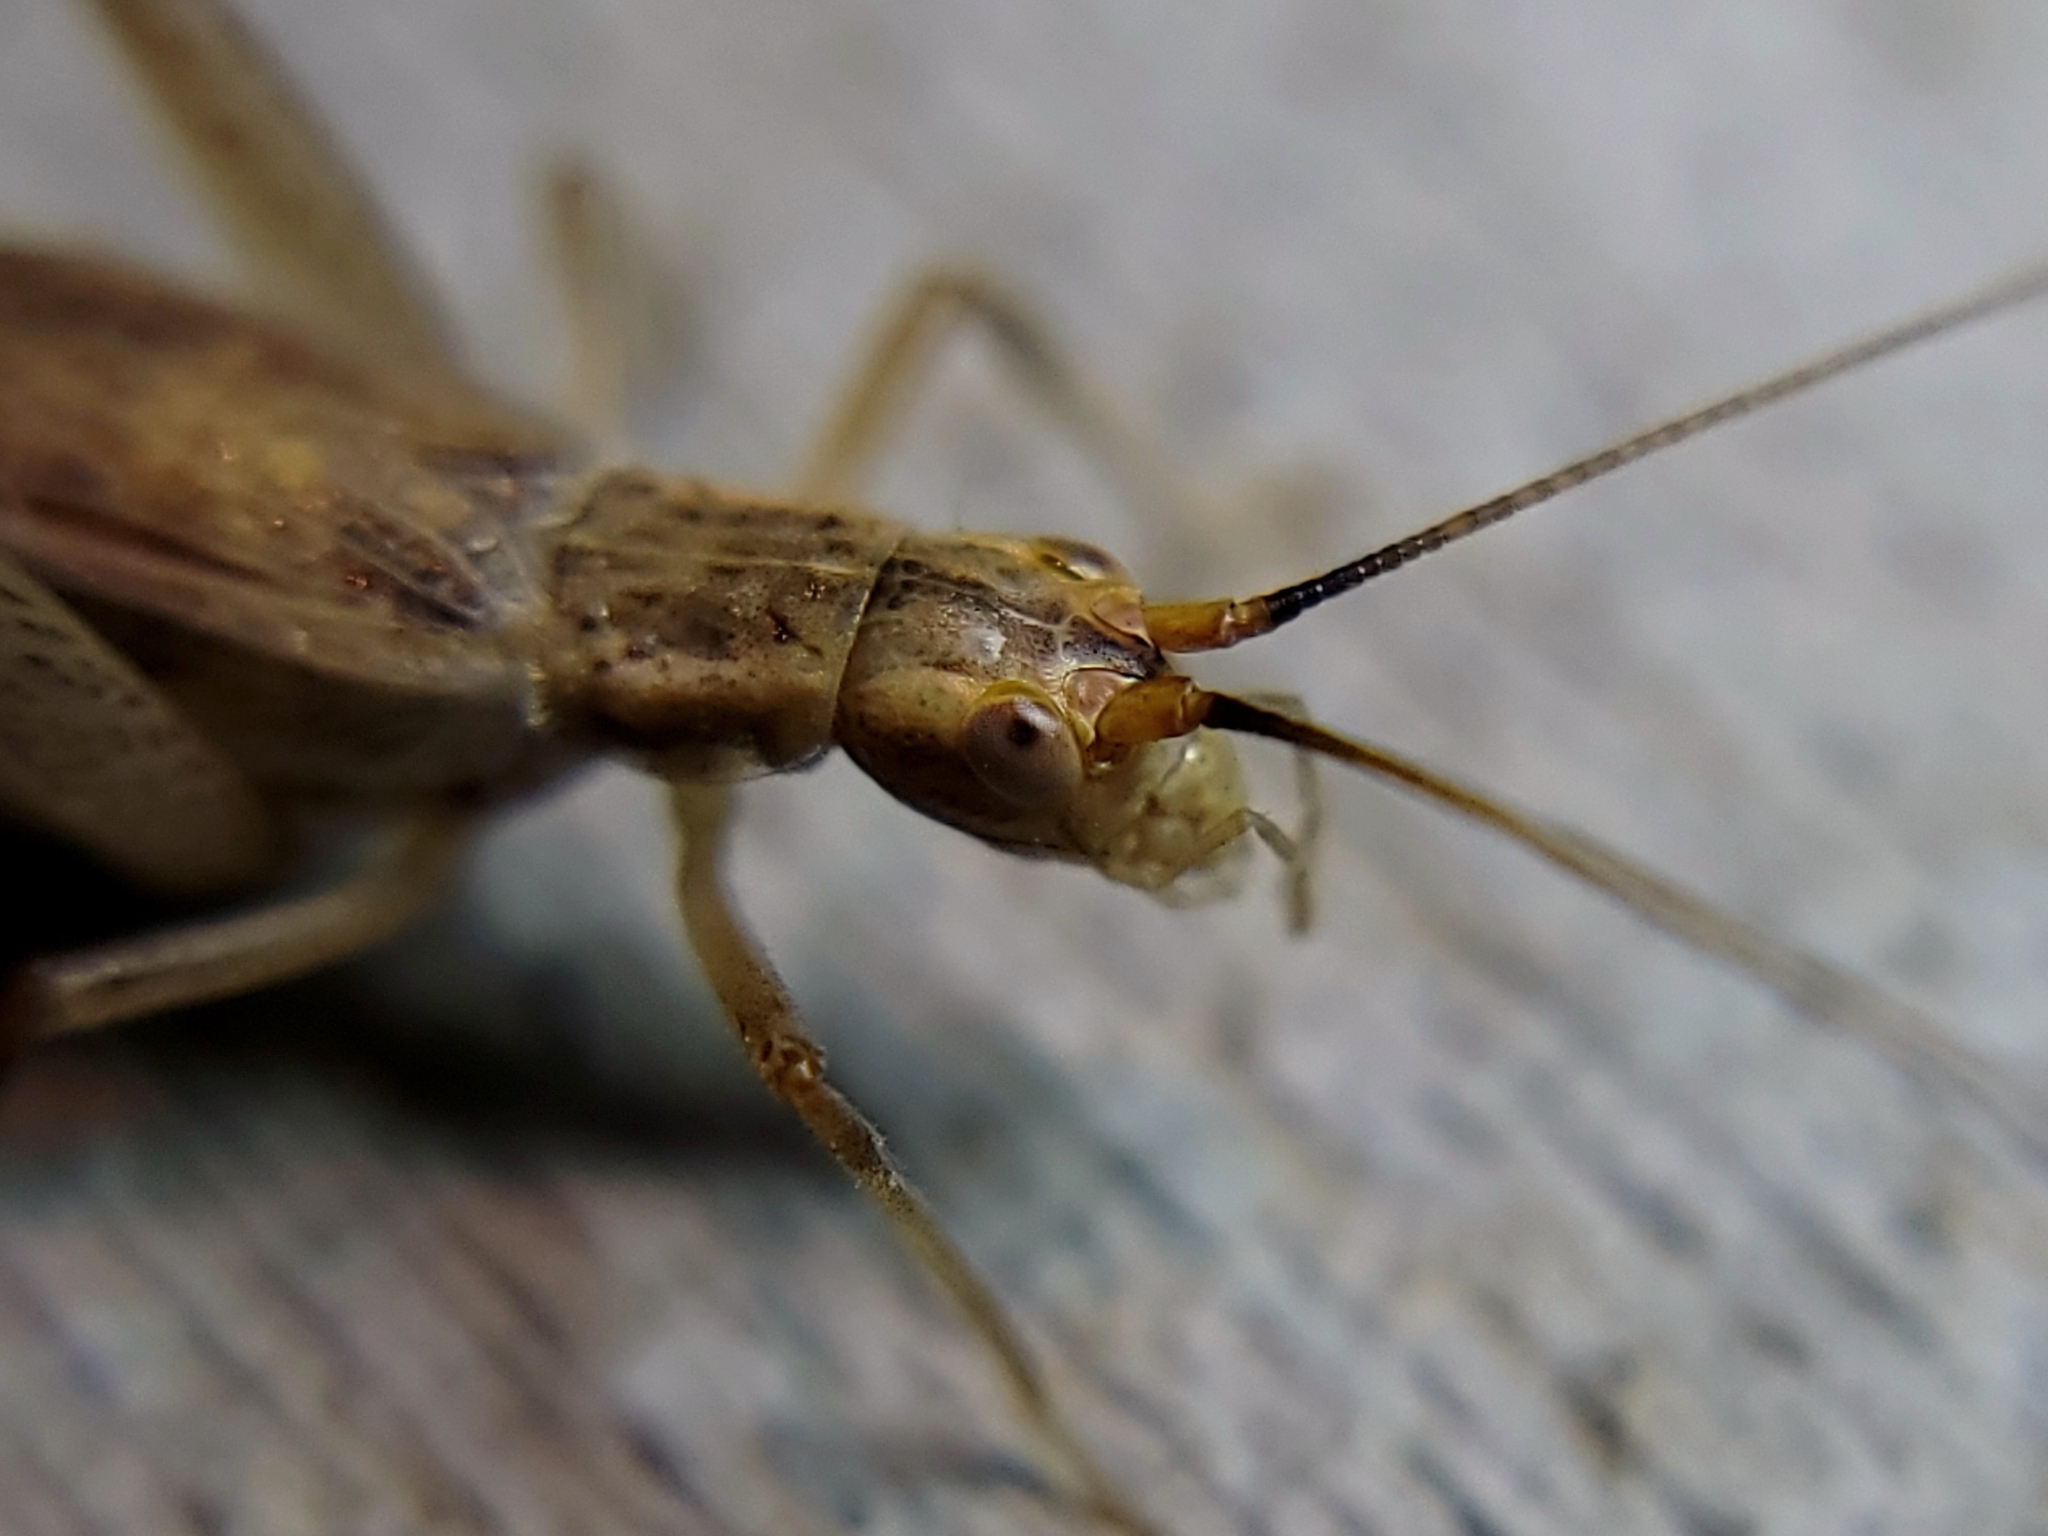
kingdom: Animalia
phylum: Arthropoda
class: Insecta
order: Orthoptera
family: Gryllidae
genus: Oecanthus
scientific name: Oecanthus californicus
